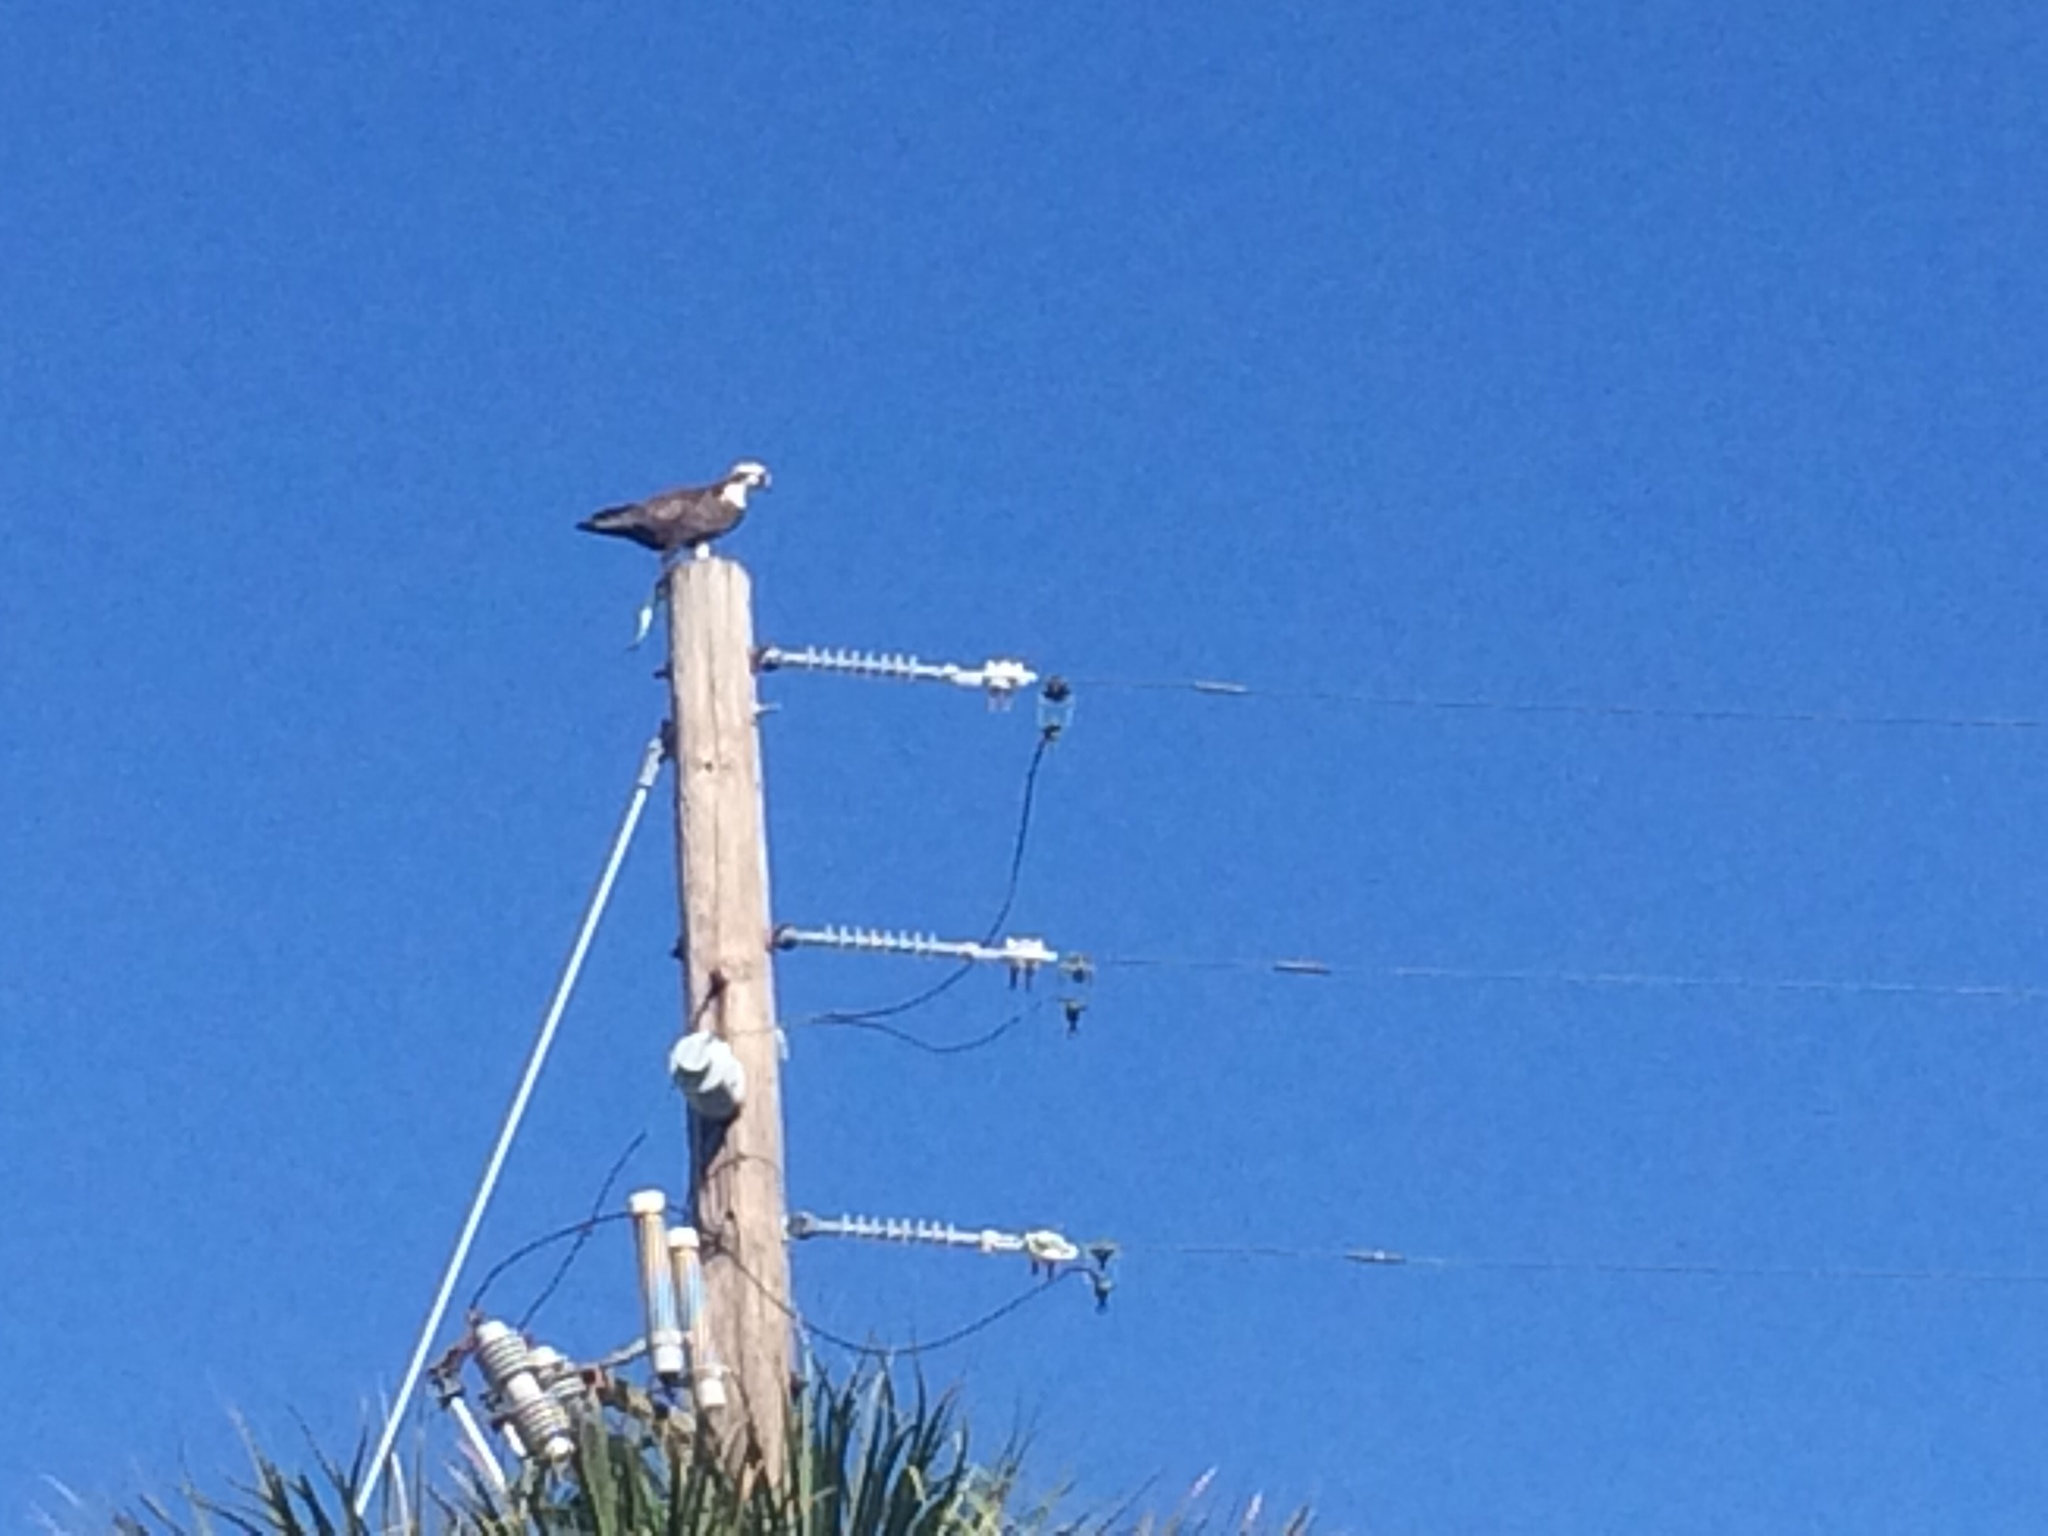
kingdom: Animalia
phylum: Chordata
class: Aves
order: Accipitriformes
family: Pandionidae
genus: Pandion
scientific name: Pandion haliaetus
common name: Osprey
